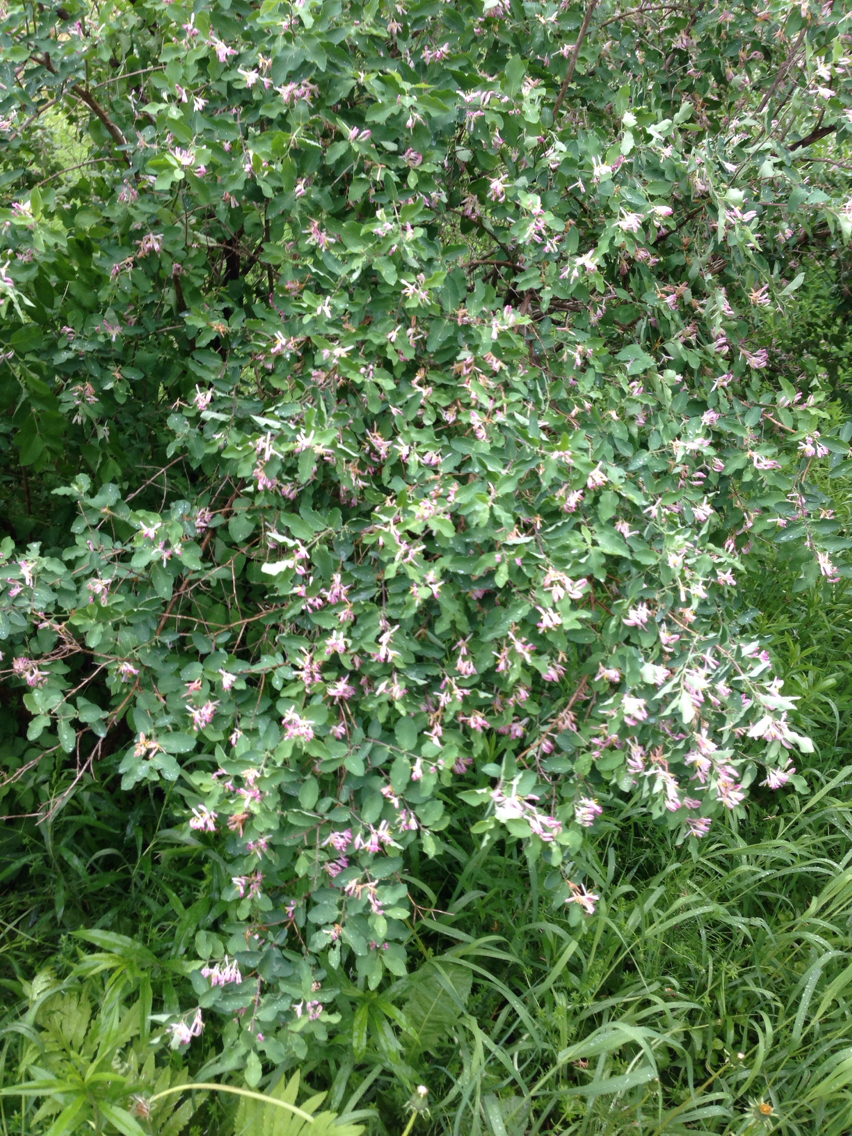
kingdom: Plantae
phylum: Tracheophyta
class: Magnoliopsida
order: Dipsacales
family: Caprifoliaceae
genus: Lonicera
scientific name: Lonicera tatarica
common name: Tatarian honeysuckle
